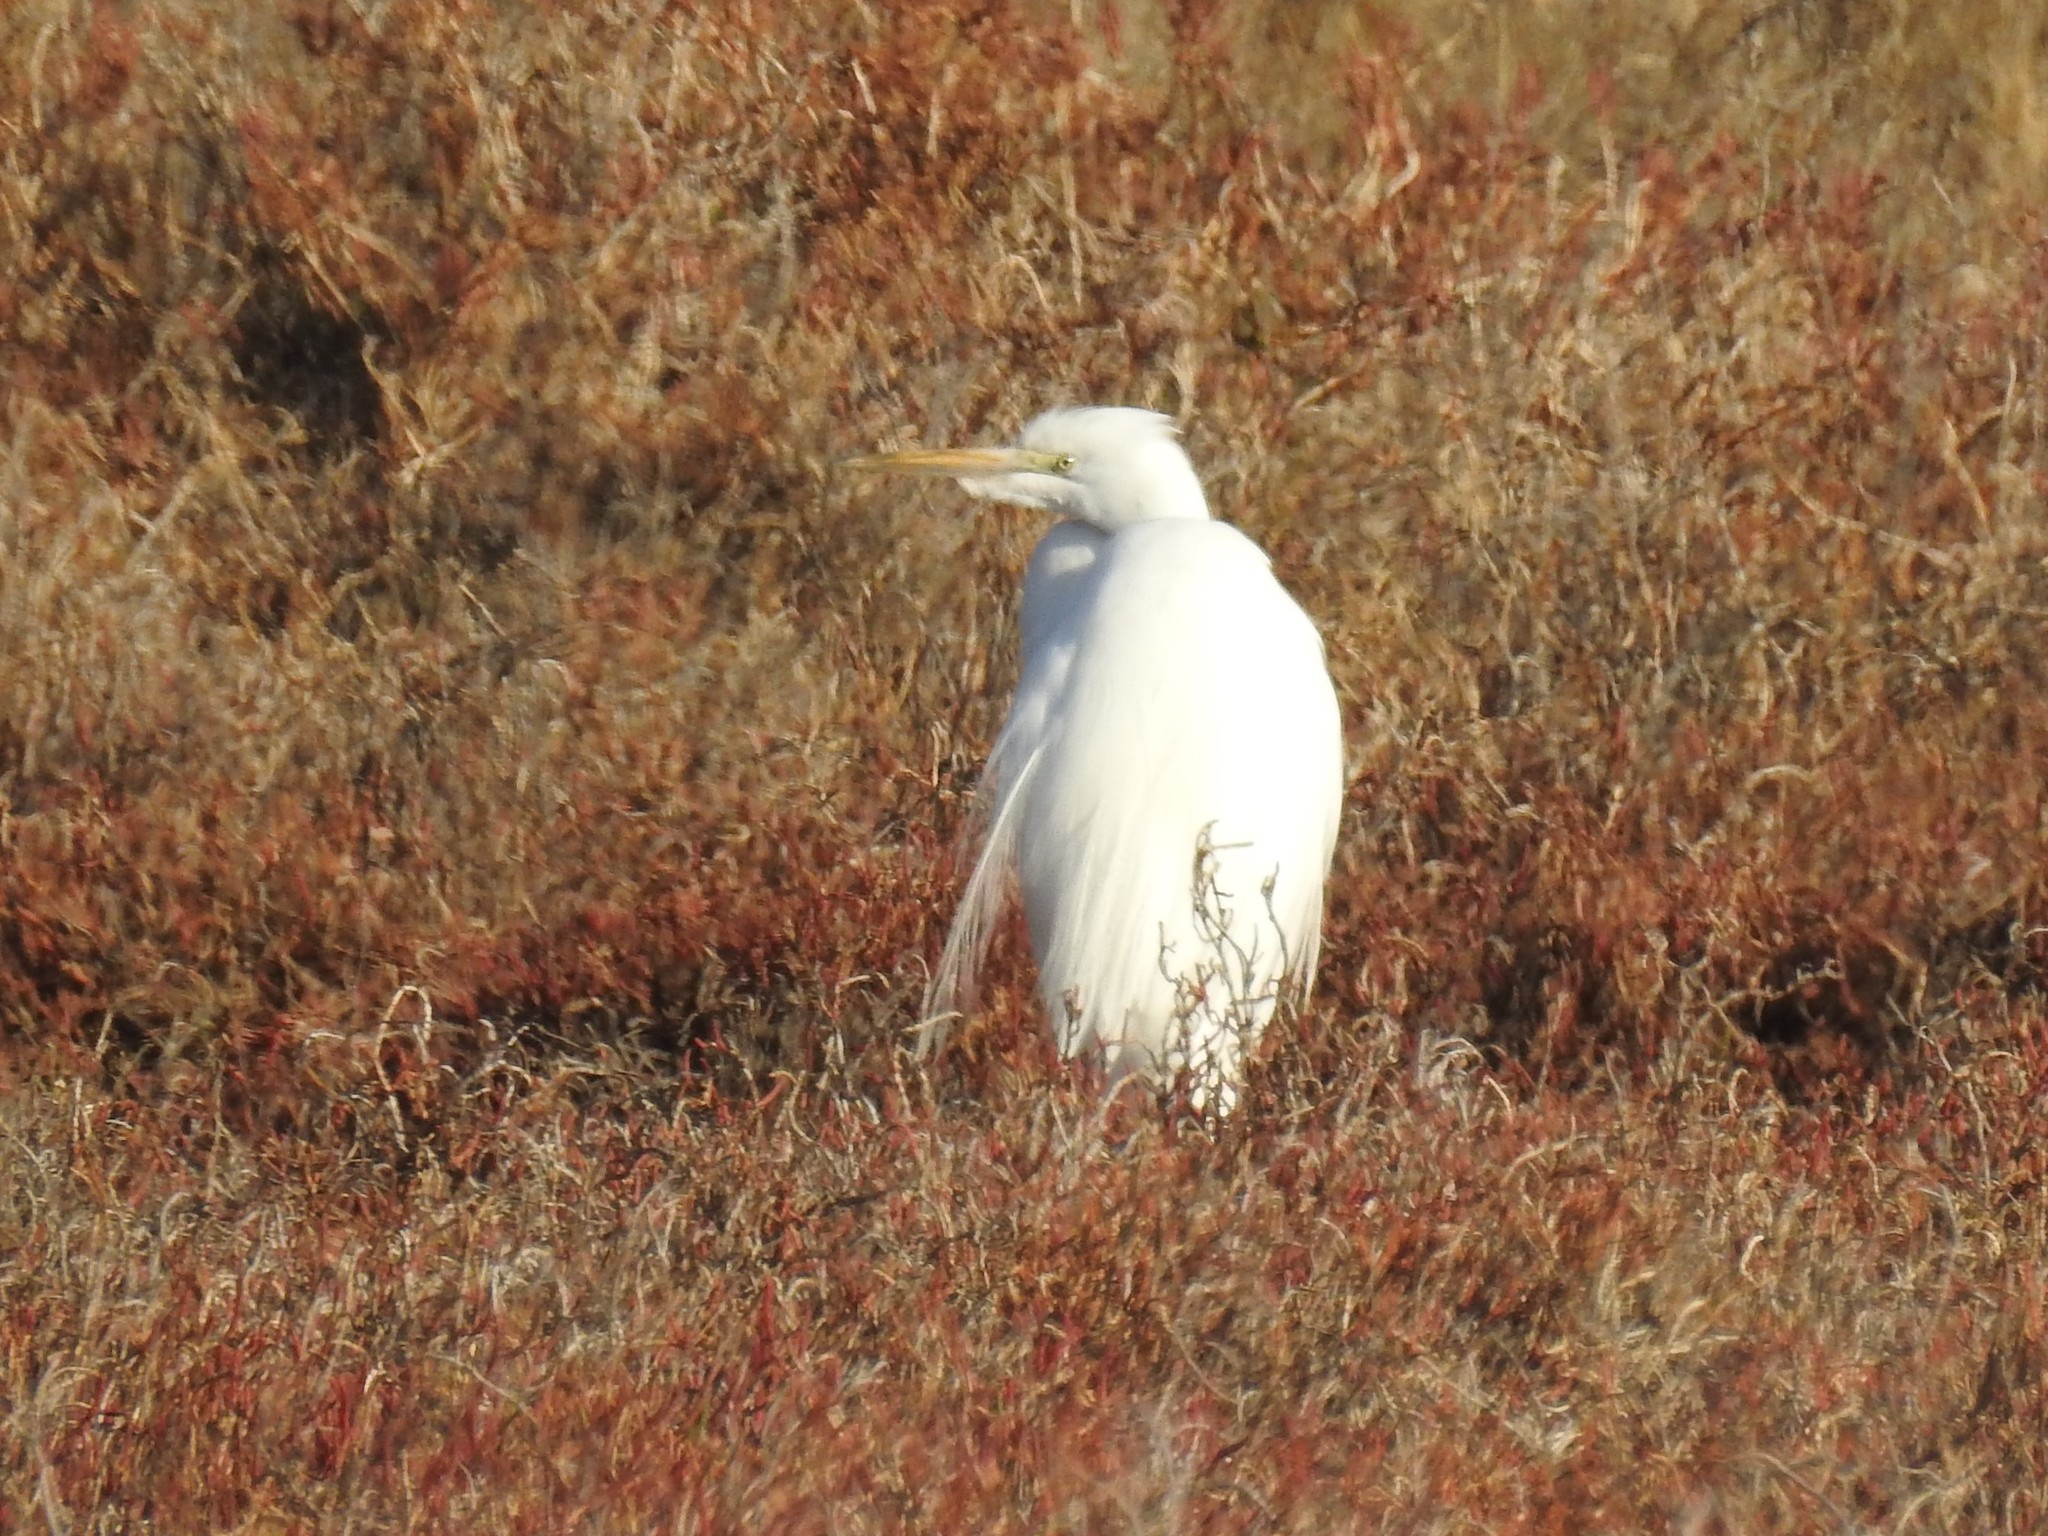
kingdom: Animalia
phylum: Chordata
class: Aves
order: Pelecaniformes
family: Ardeidae
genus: Ardea
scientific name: Ardea alba
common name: Great egret
